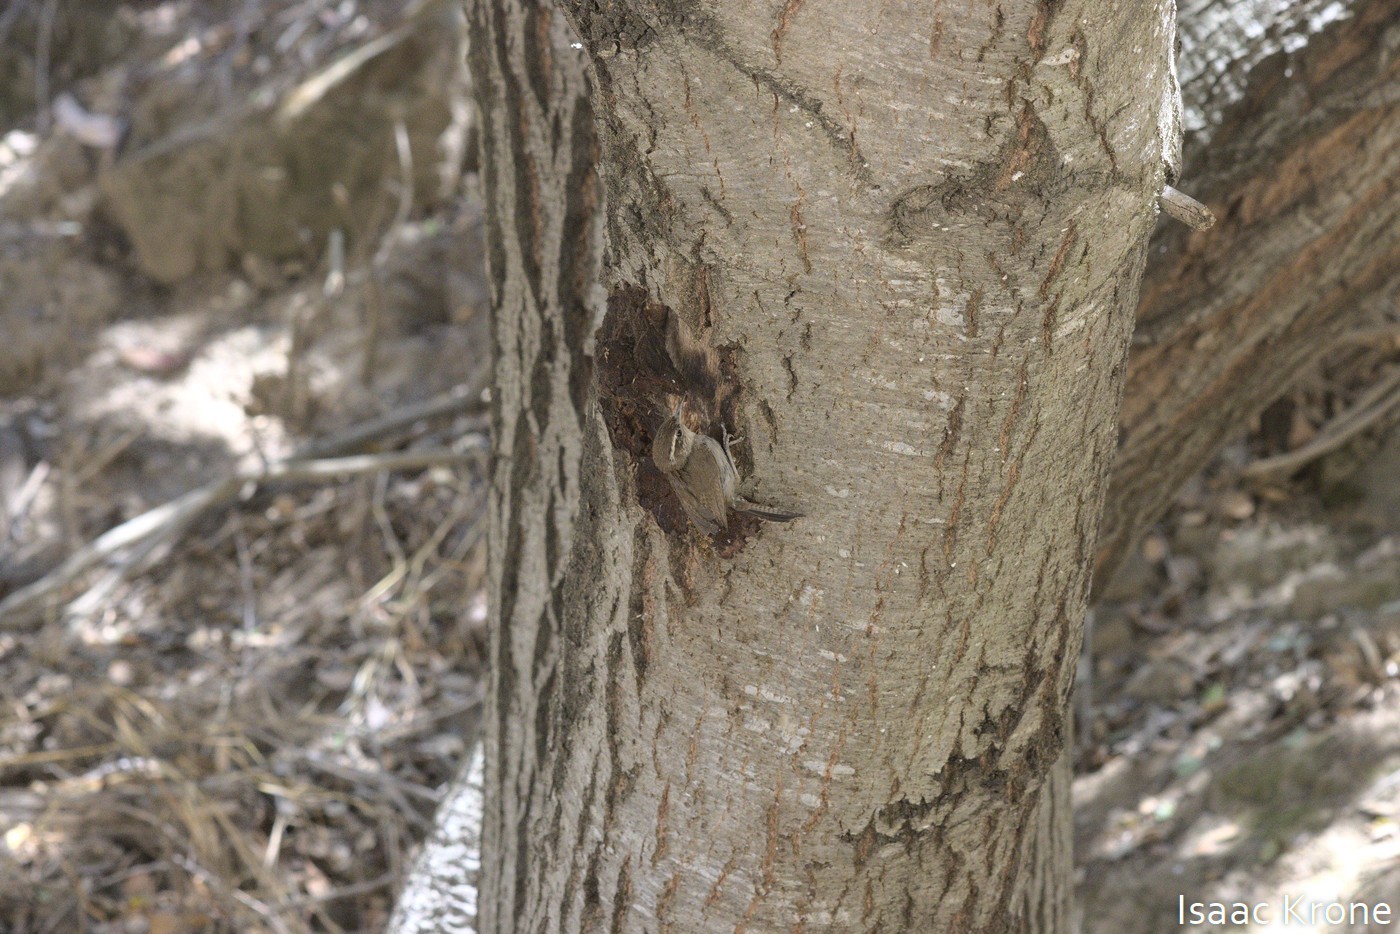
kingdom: Animalia
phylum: Chordata
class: Aves
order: Passeriformes
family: Troglodytidae
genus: Thryomanes
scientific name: Thryomanes bewickii
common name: Bewick's wren
